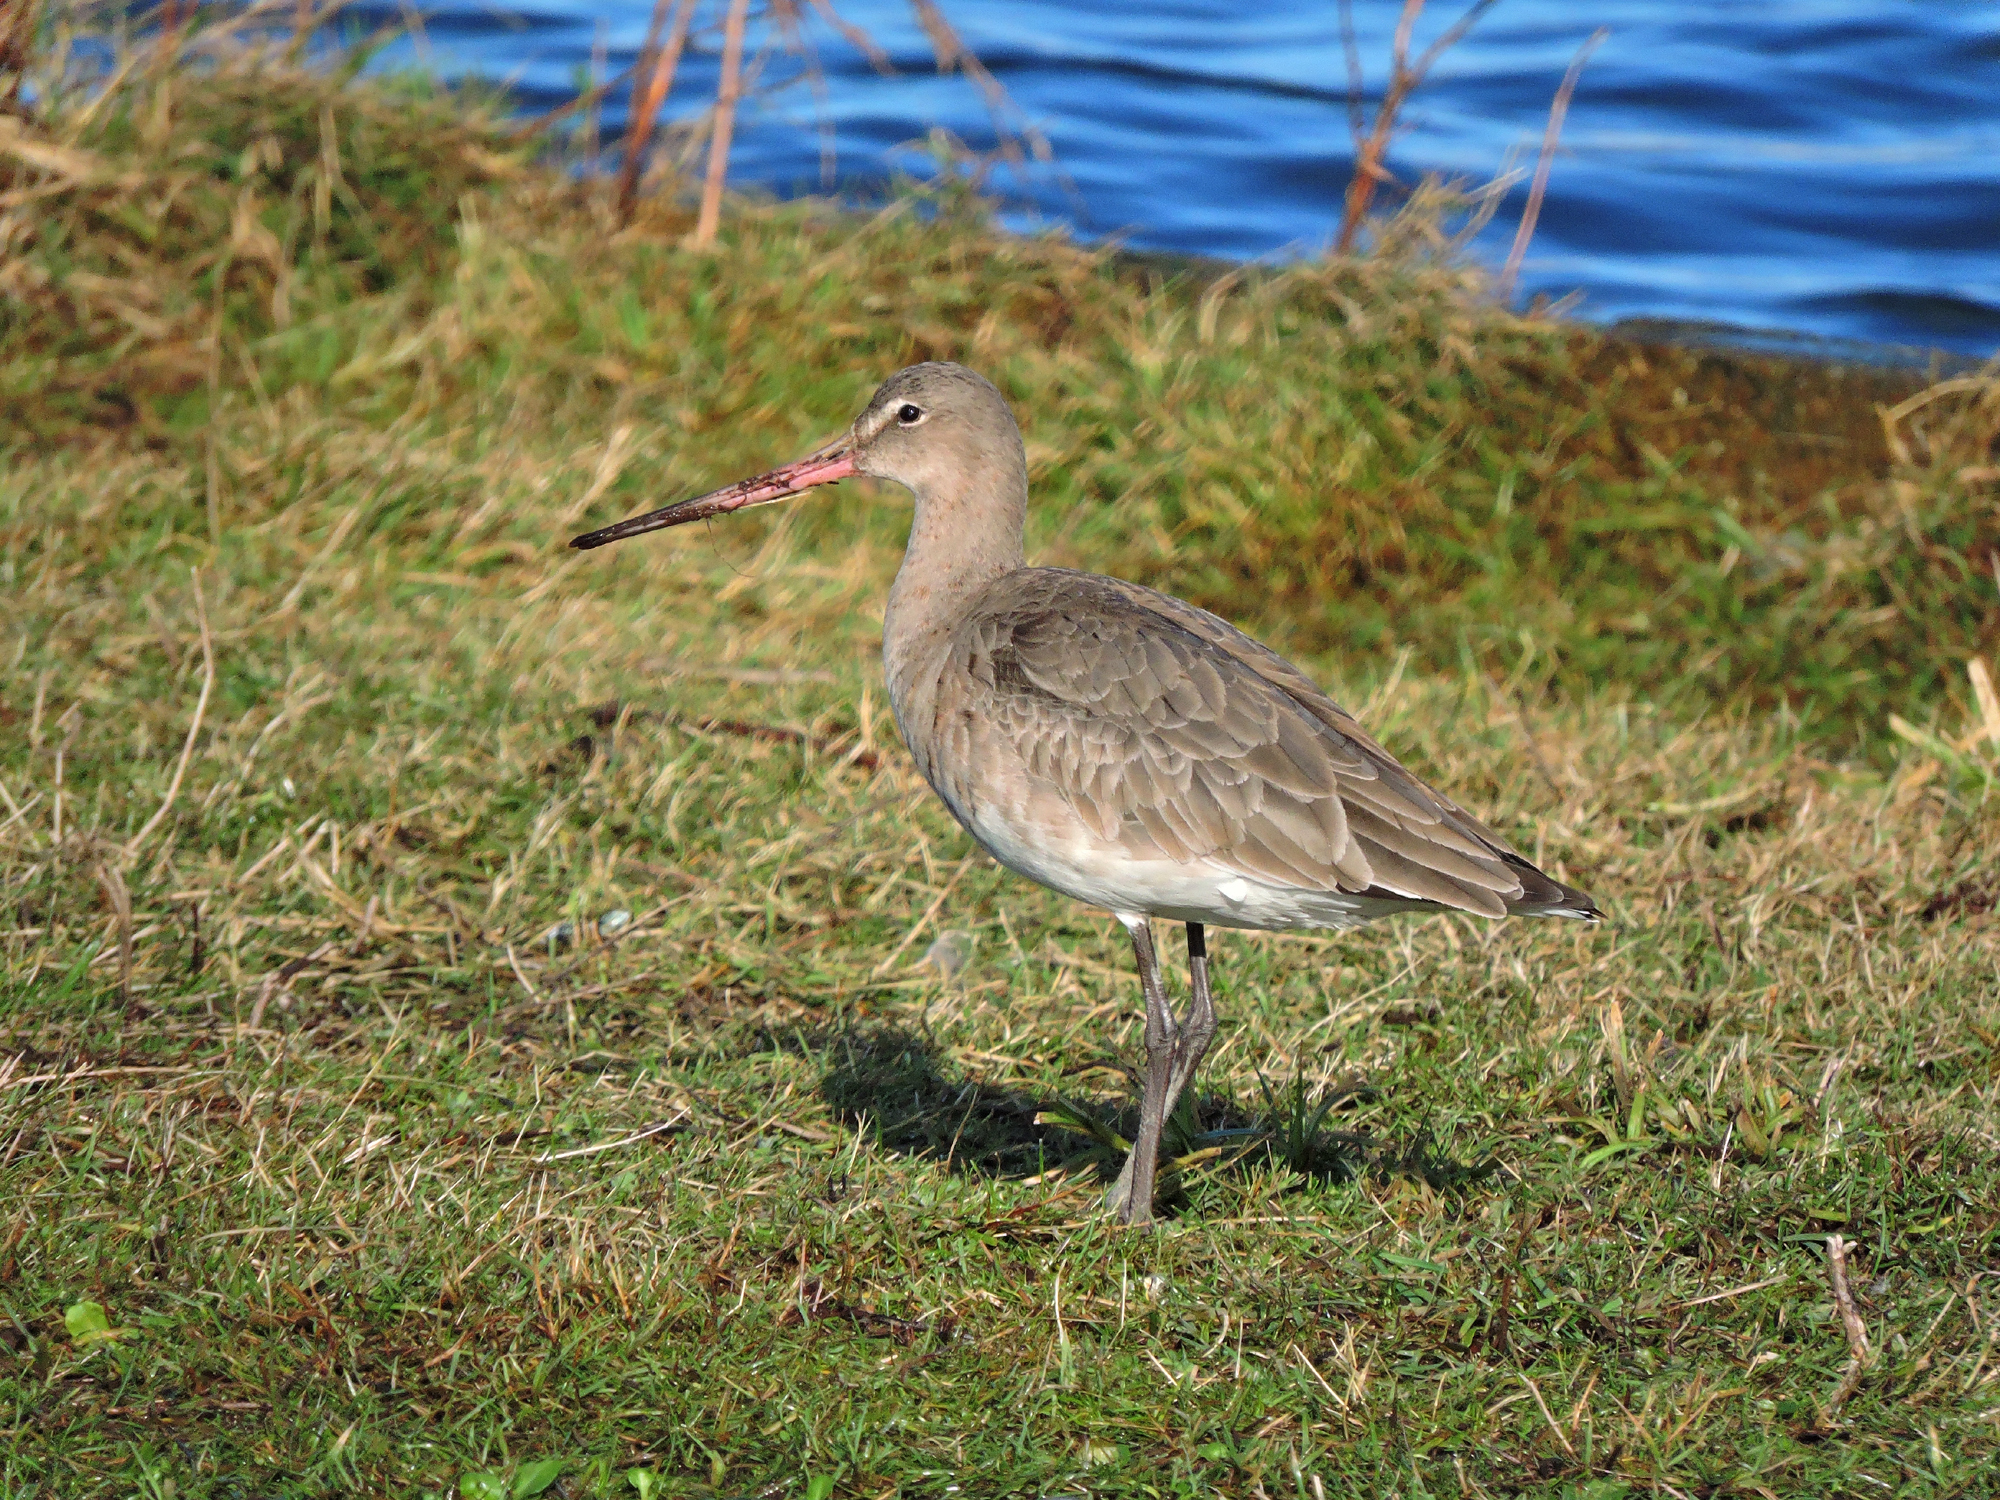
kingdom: Animalia
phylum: Chordata
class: Aves
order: Charadriiformes
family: Scolopacidae
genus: Limosa
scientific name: Limosa limosa
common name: Black-tailed godwit
